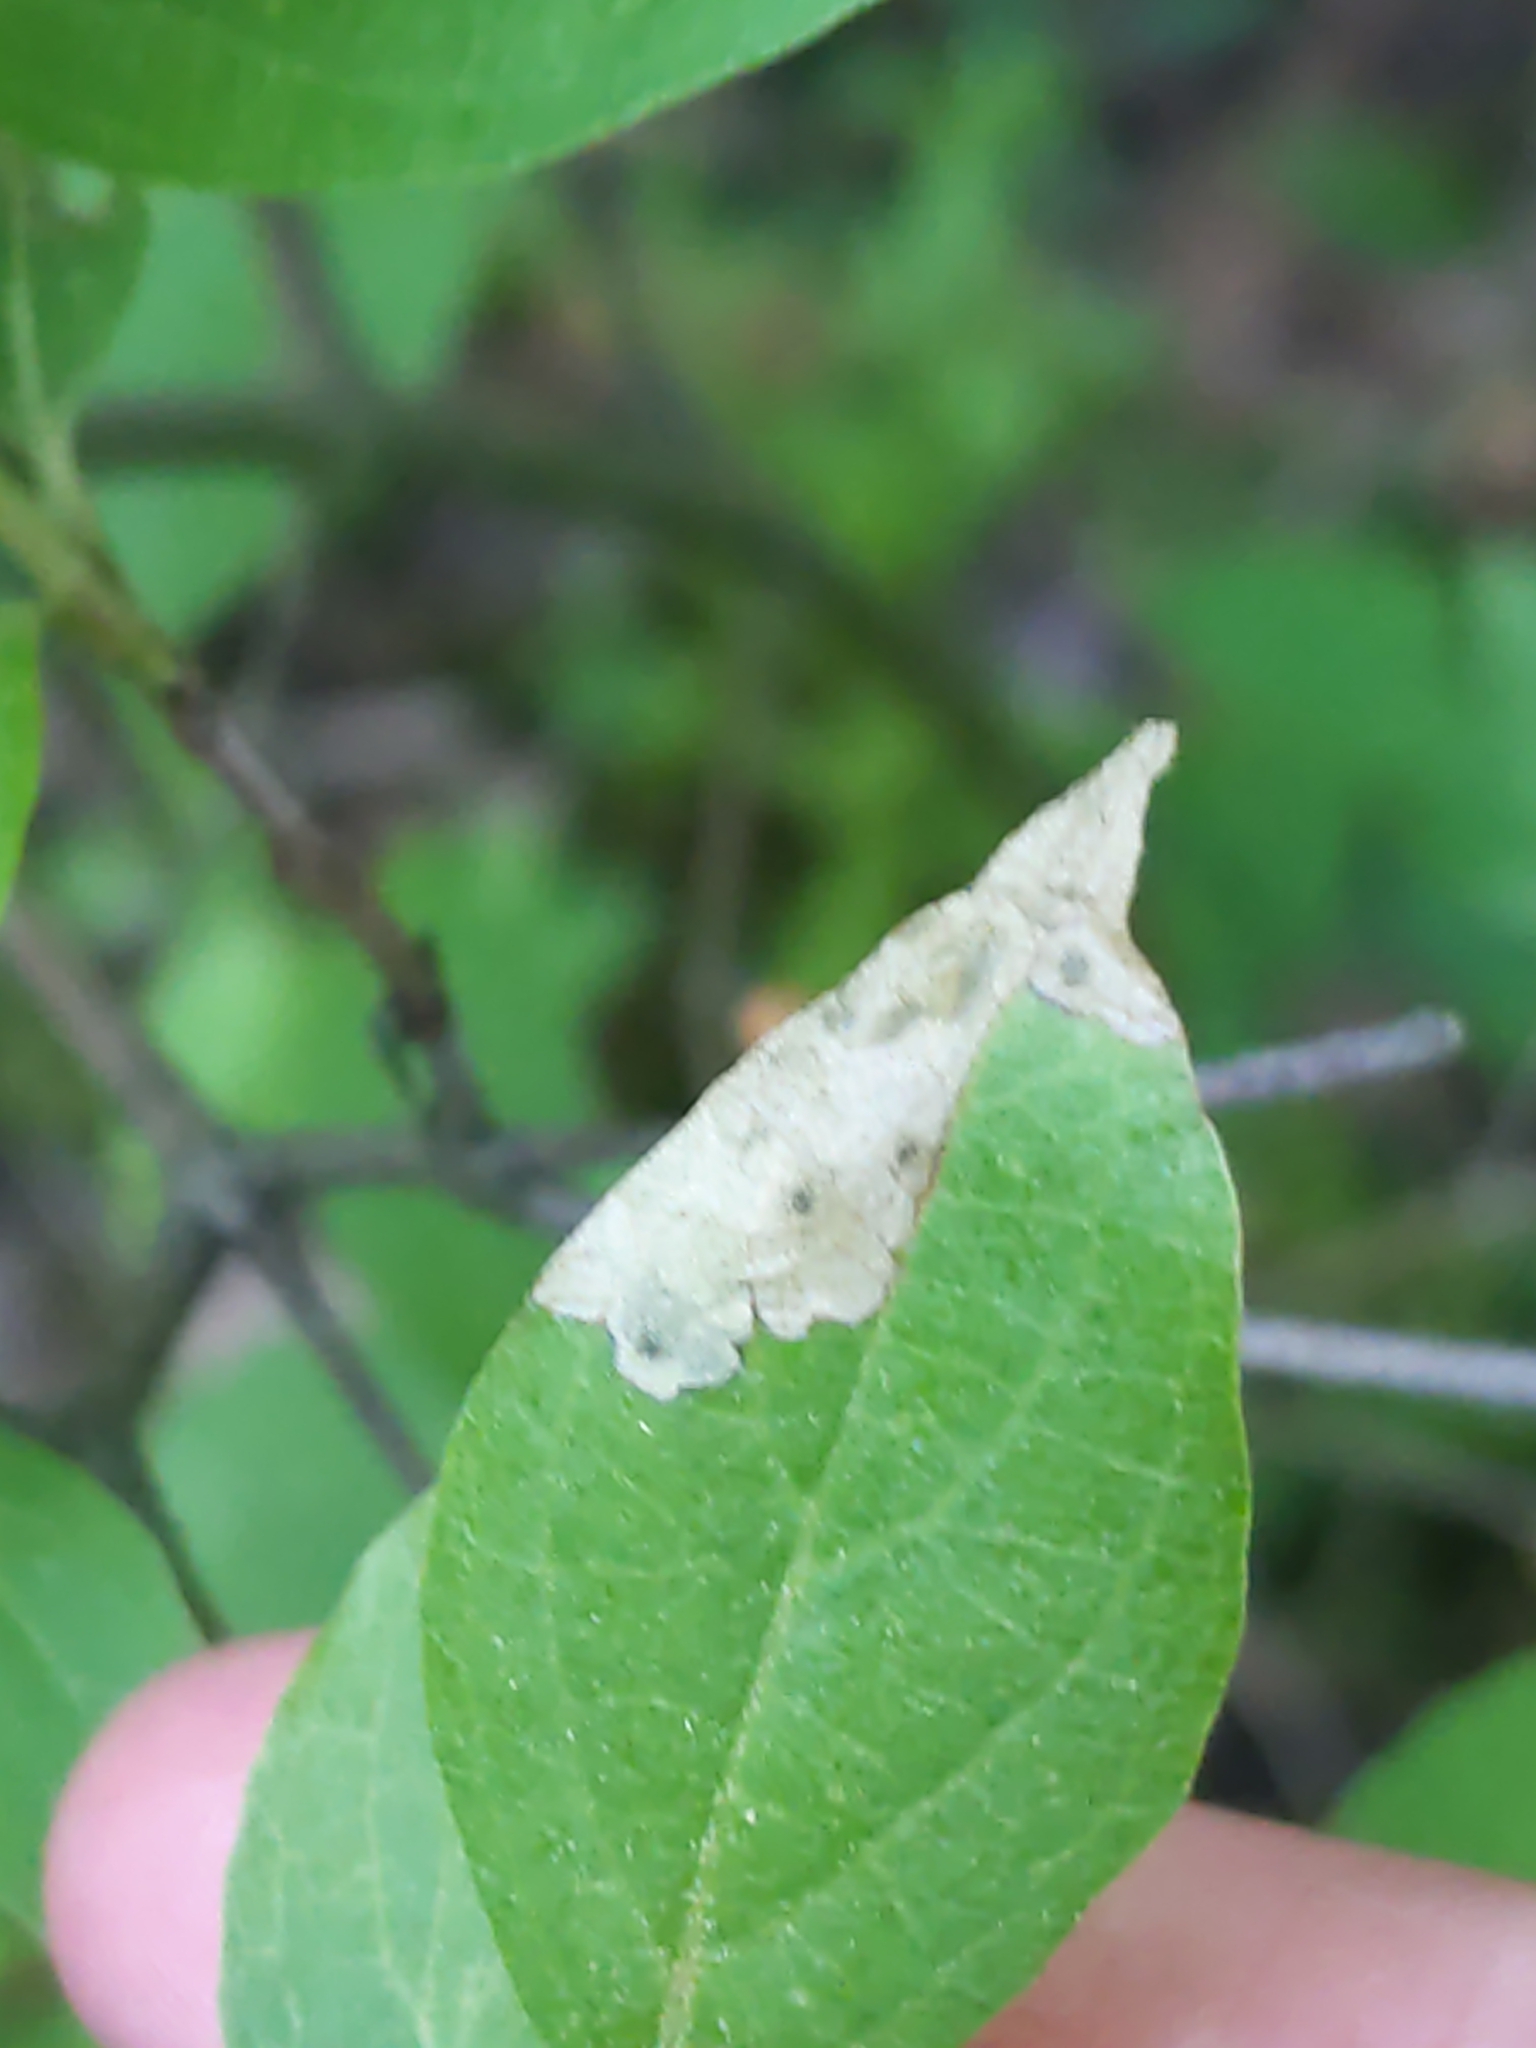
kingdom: Animalia
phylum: Arthropoda
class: Insecta
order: Lepidoptera
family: Coleophoridae
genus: Coleophora
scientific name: Coleophora cornella
